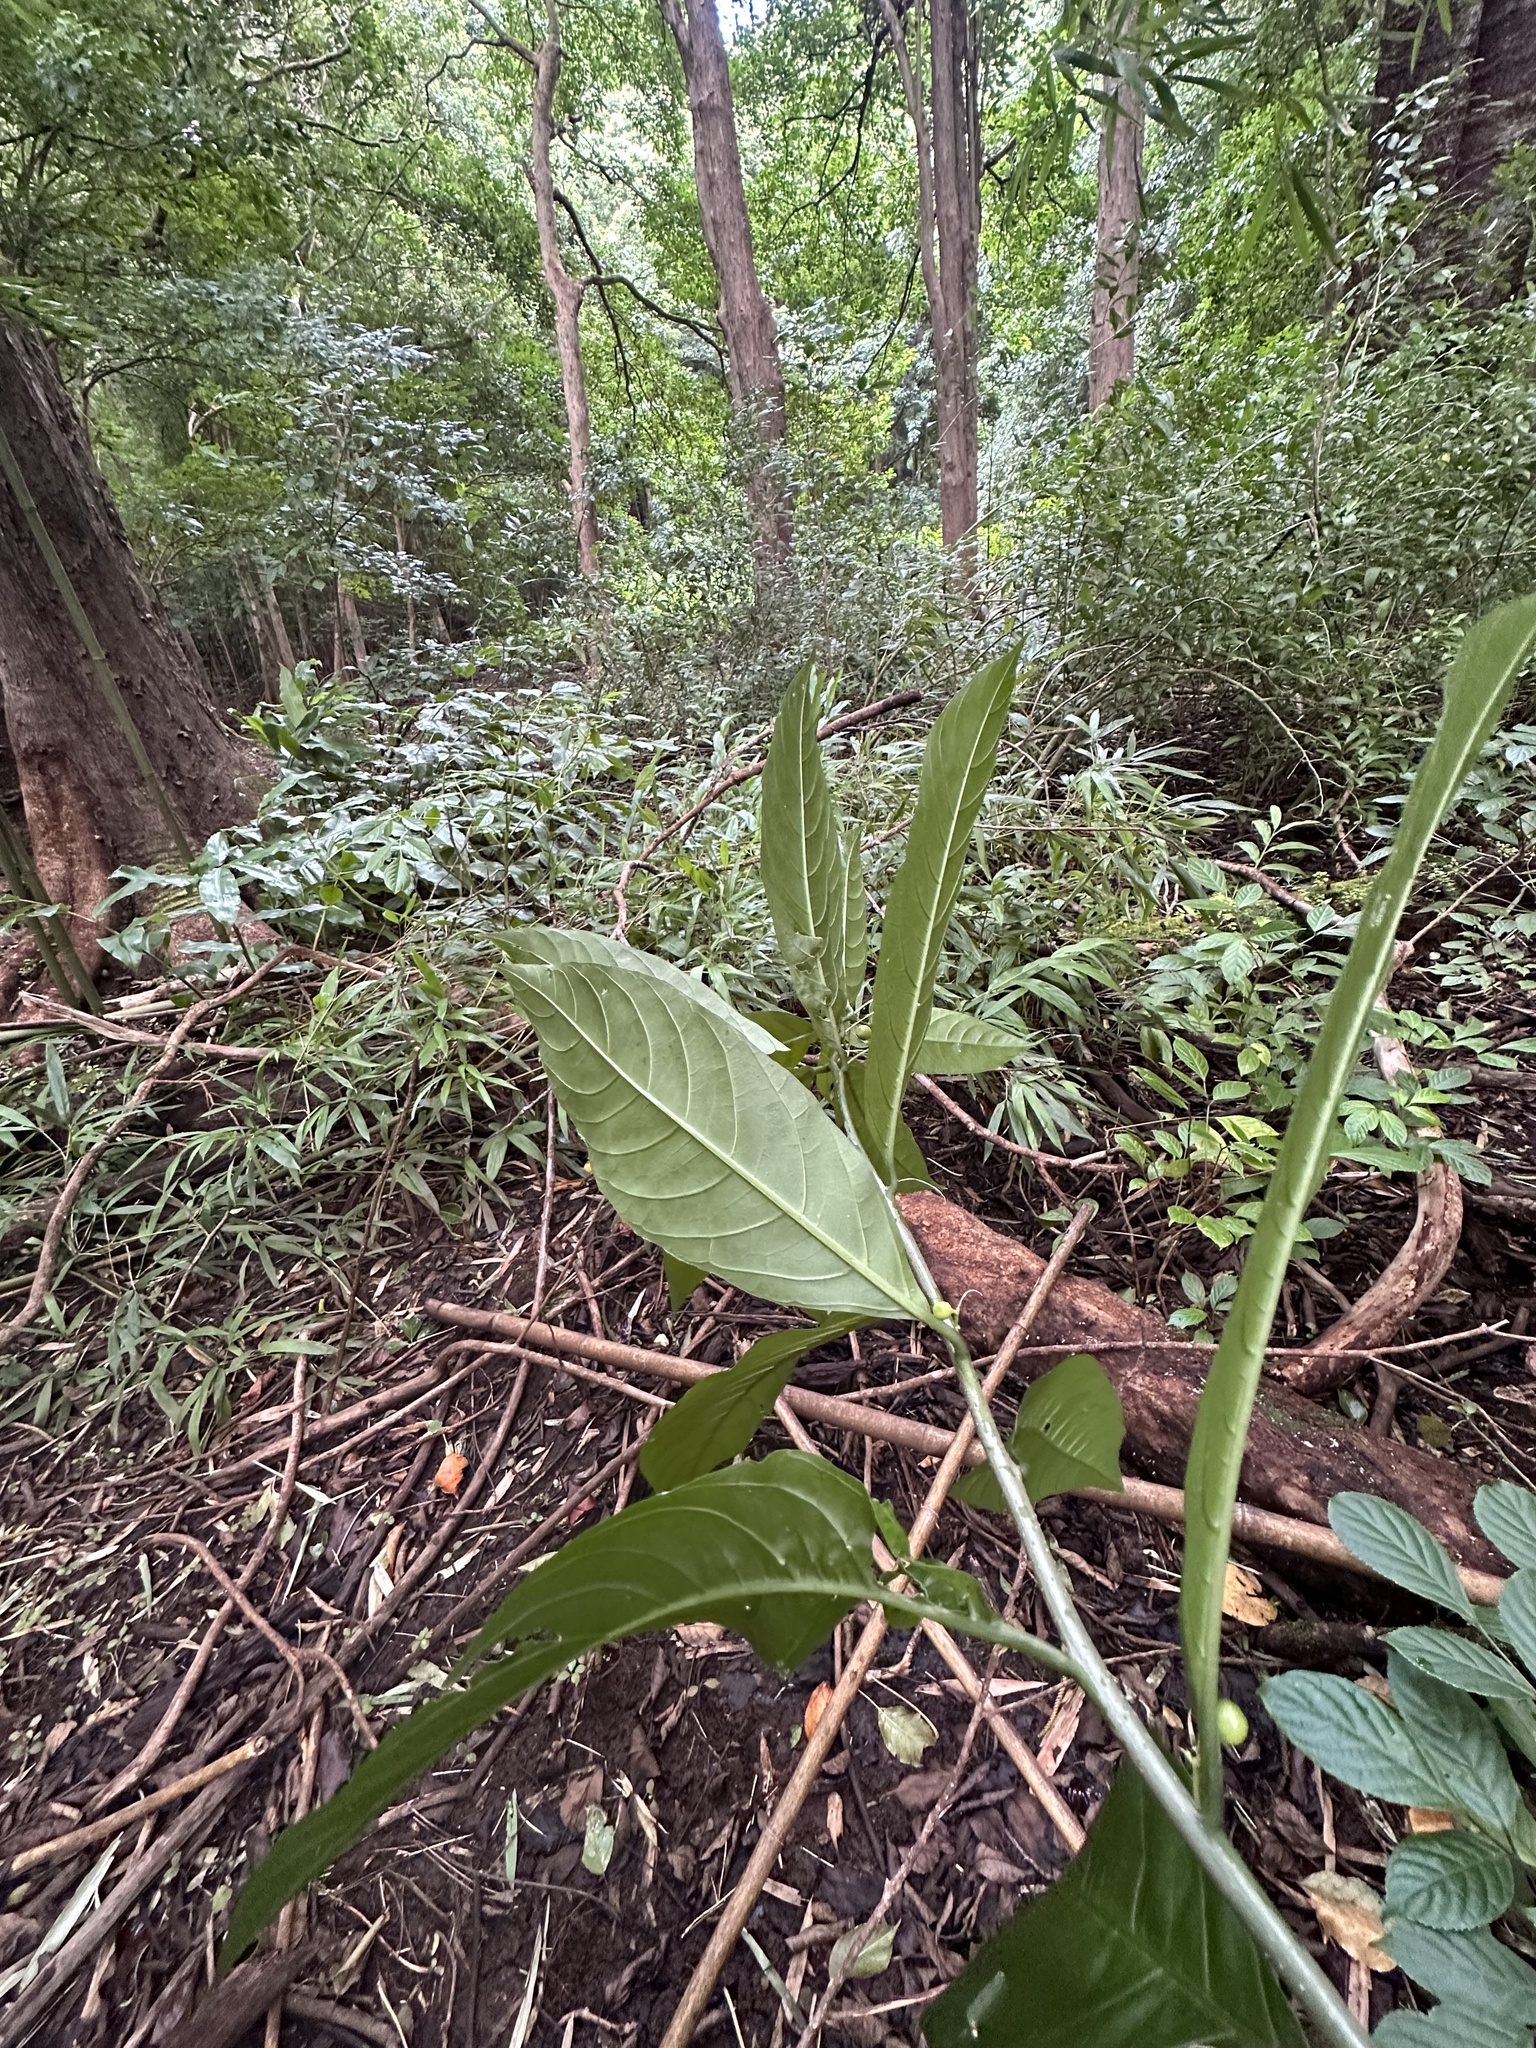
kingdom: Plantae
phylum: Tracheophyta
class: Magnoliopsida
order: Solanales
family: Solanaceae
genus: Cestrum
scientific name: Cestrum nocturnum
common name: Night jessamine
